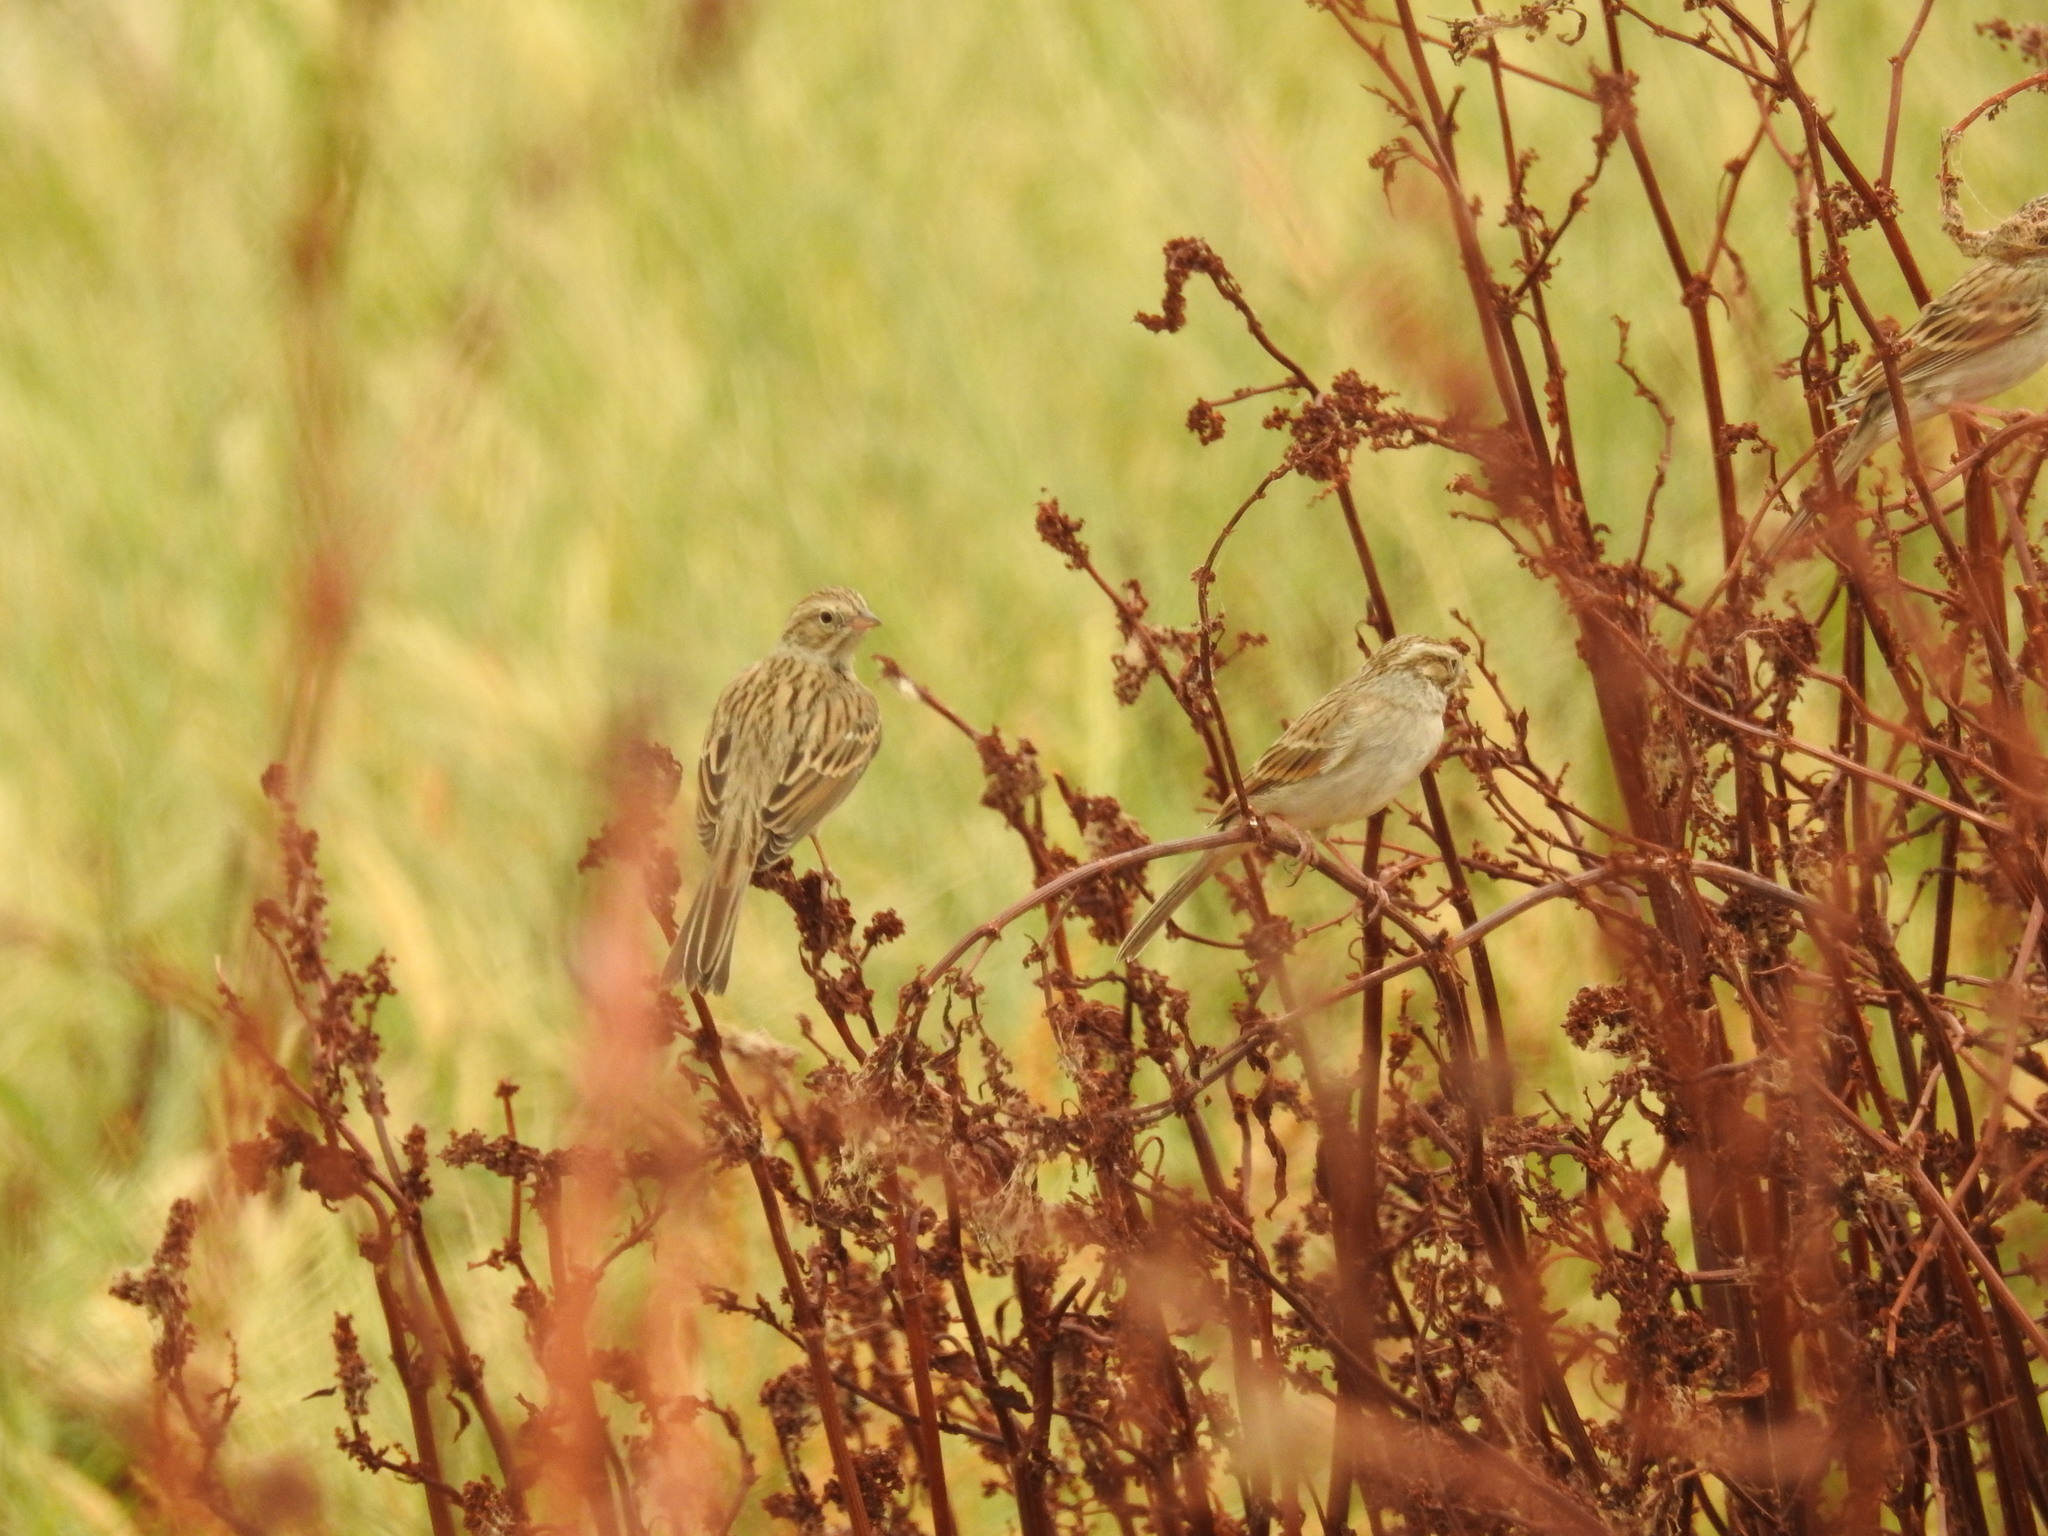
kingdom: Animalia
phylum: Chordata
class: Aves
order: Passeriformes
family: Passerellidae
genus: Spizella
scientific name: Spizella breweri
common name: Brewer's sparrow
